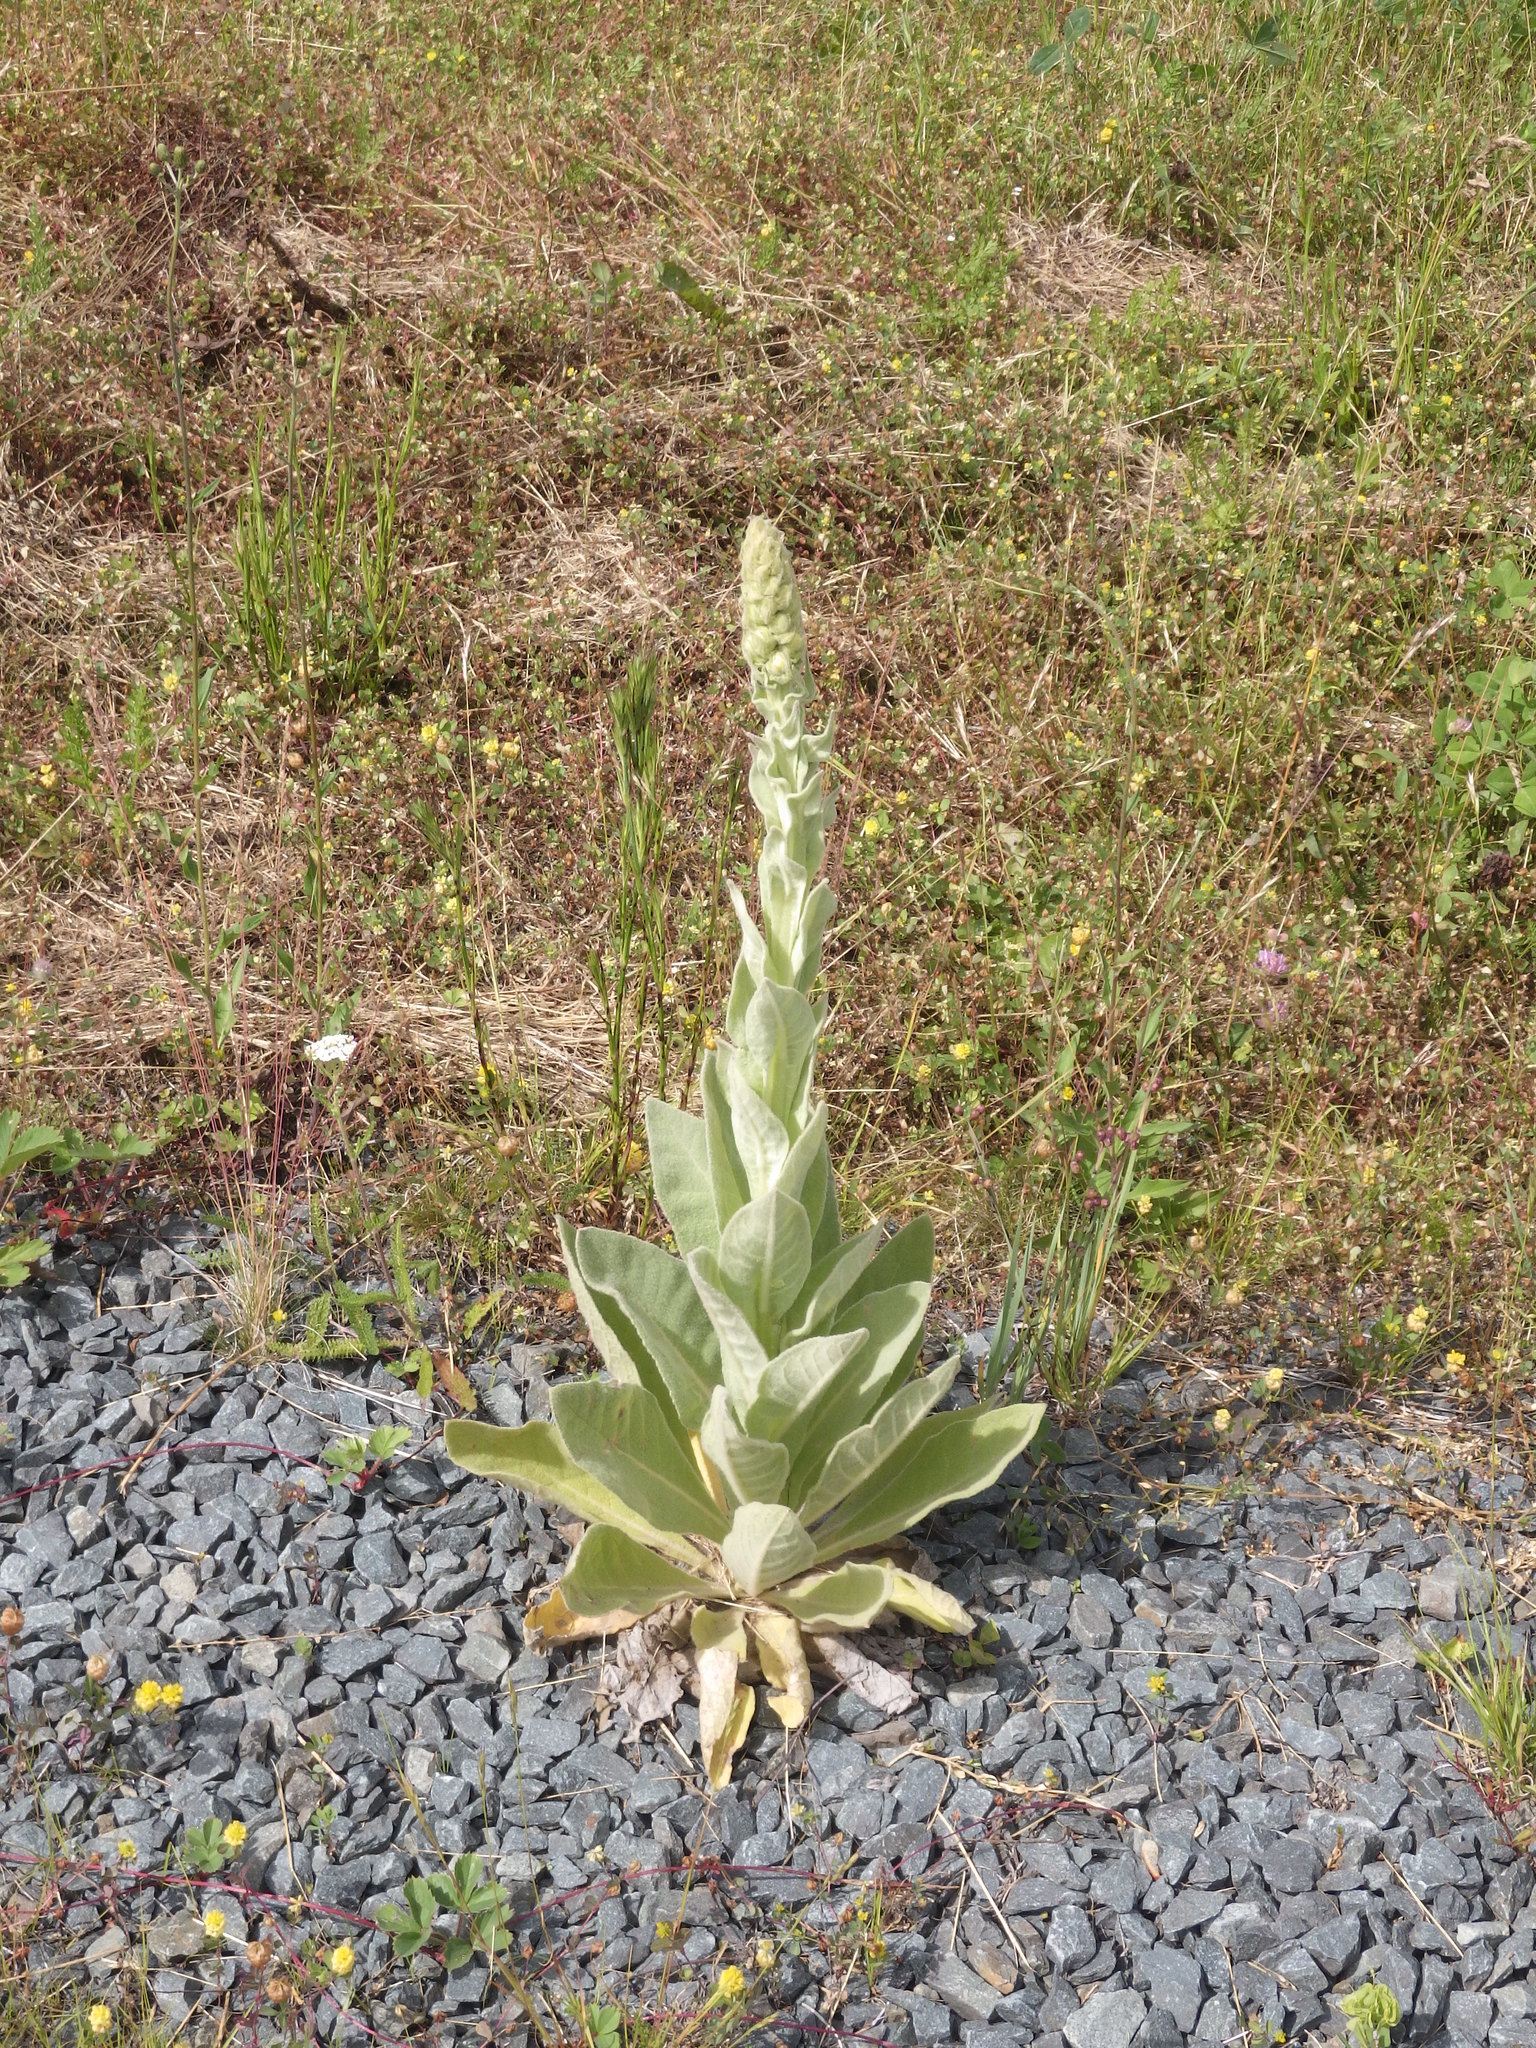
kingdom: Plantae
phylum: Tracheophyta
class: Magnoliopsida
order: Lamiales
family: Scrophulariaceae
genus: Verbascum
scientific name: Verbascum thapsus
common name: Common mullein
